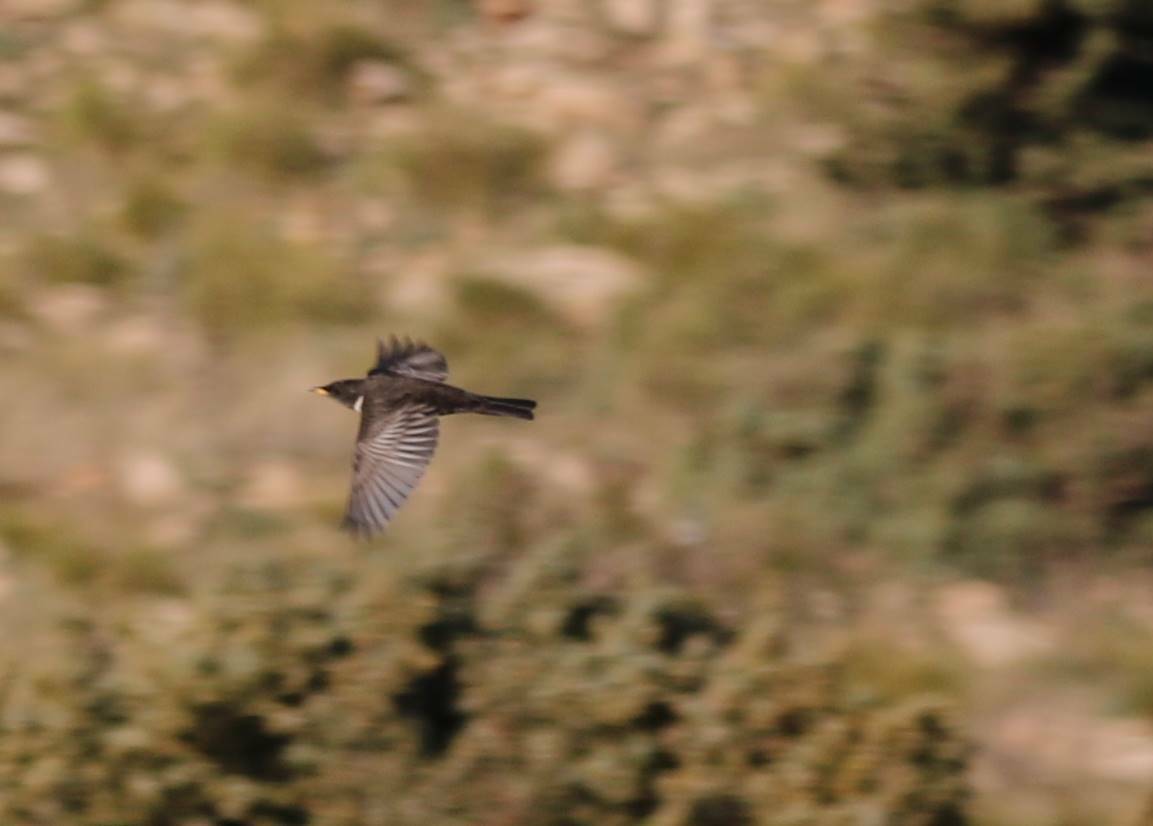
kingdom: Animalia
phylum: Chordata
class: Aves
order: Passeriformes
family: Turdidae
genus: Turdus
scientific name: Turdus torquatus
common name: Ring ouzel
